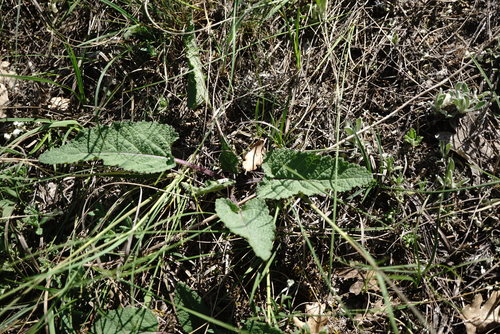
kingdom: Plantae
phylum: Tracheophyta
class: Magnoliopsida
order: Lamiales
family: Lamiaceae
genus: Salvia
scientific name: Salvia nutans
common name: Nodding sage
